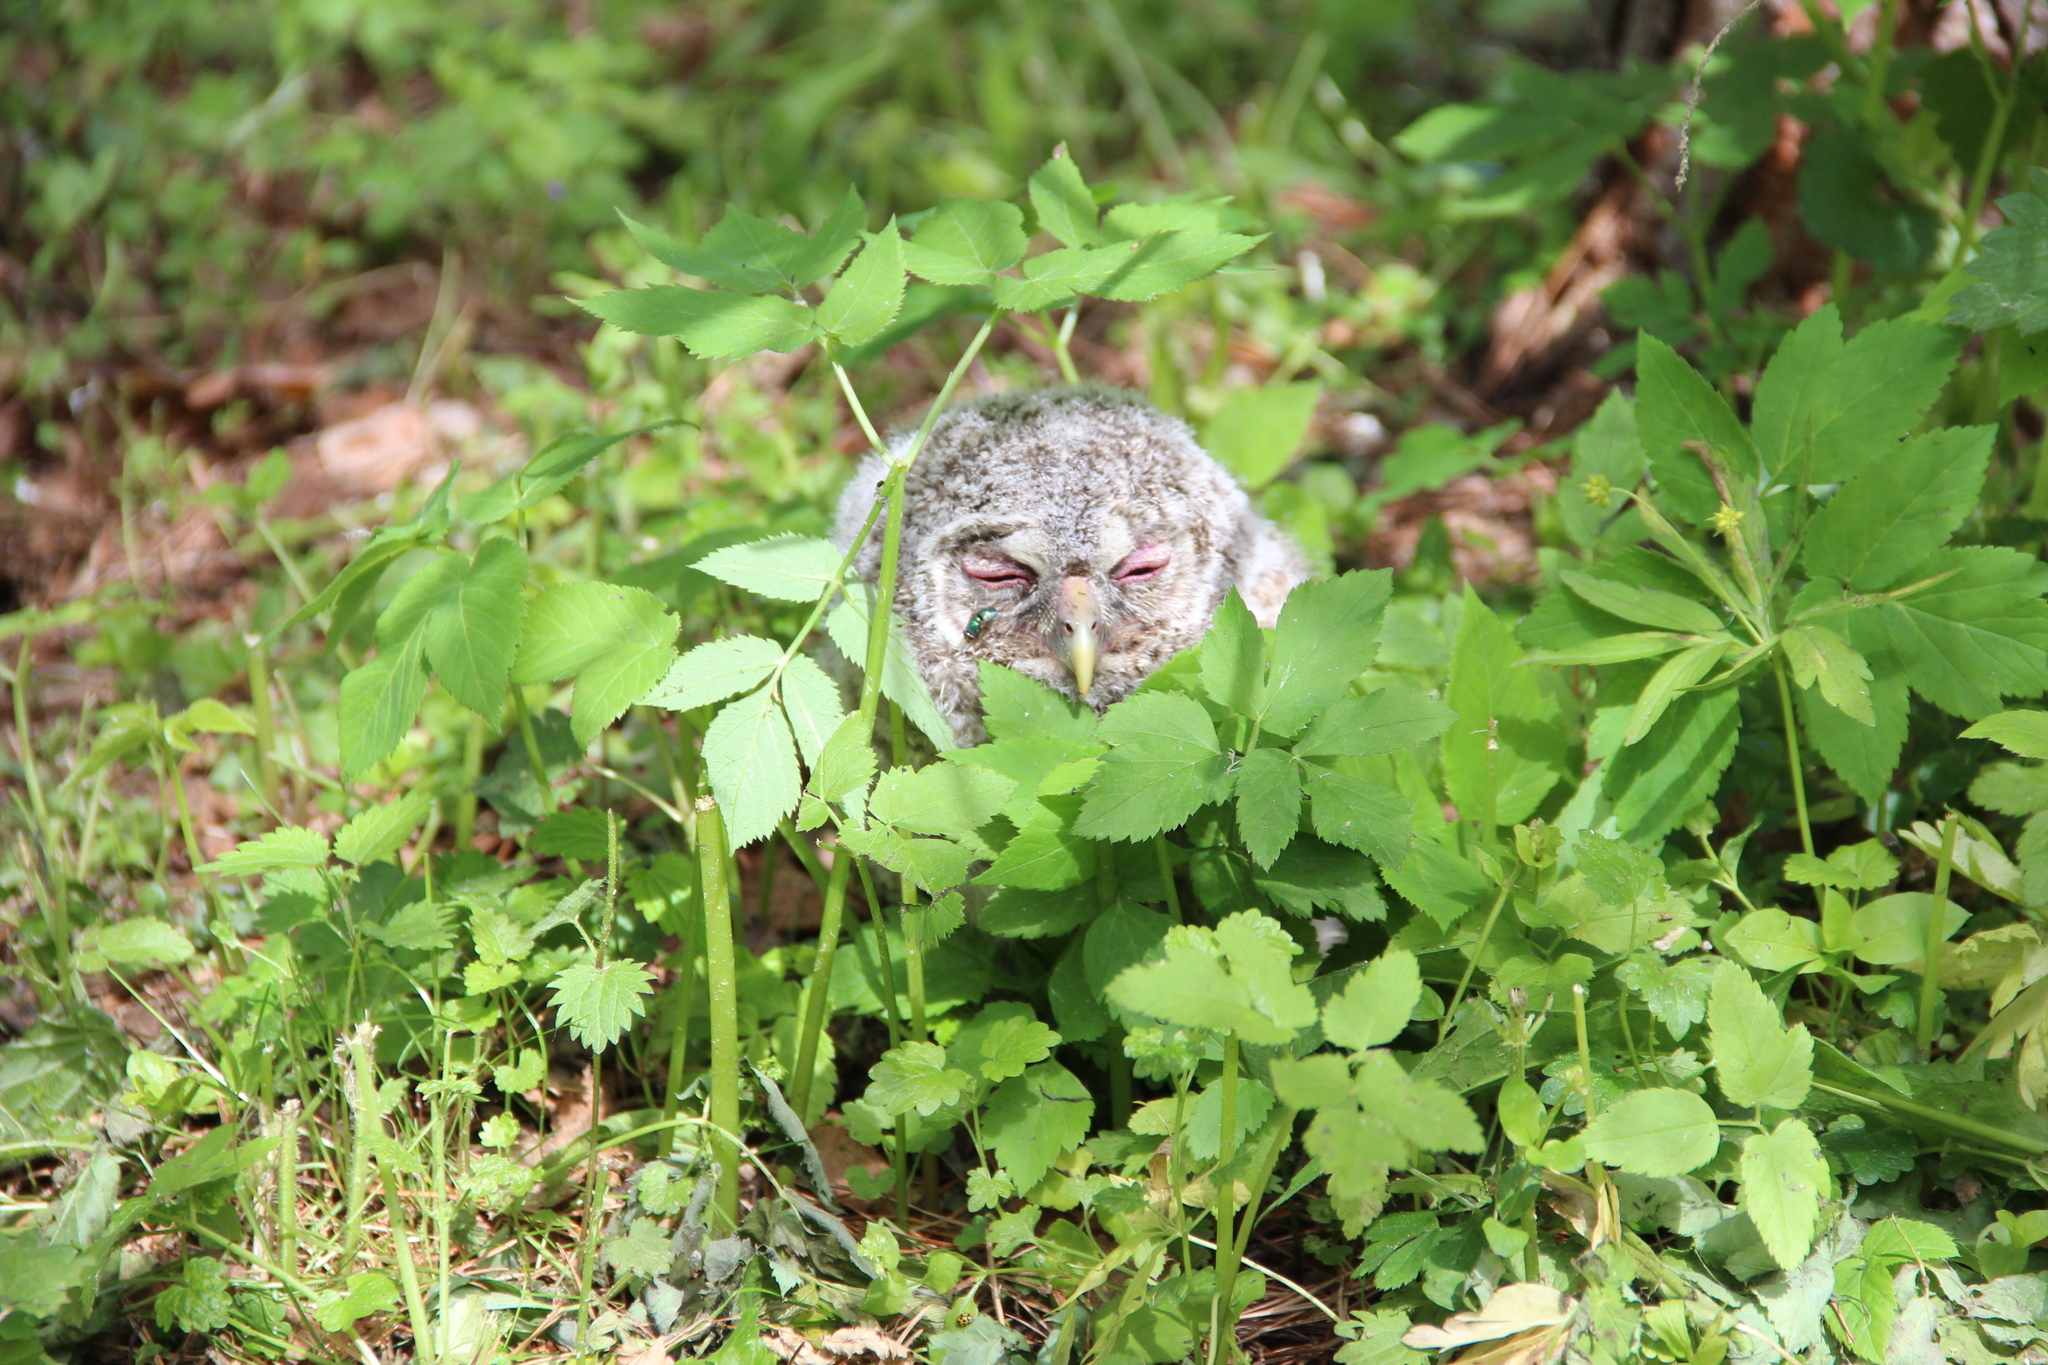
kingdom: Animalia
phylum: Chordata
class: Aves
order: Strigiformes
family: Strigidae
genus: Strix
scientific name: Strix aluco
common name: Tawny owl
